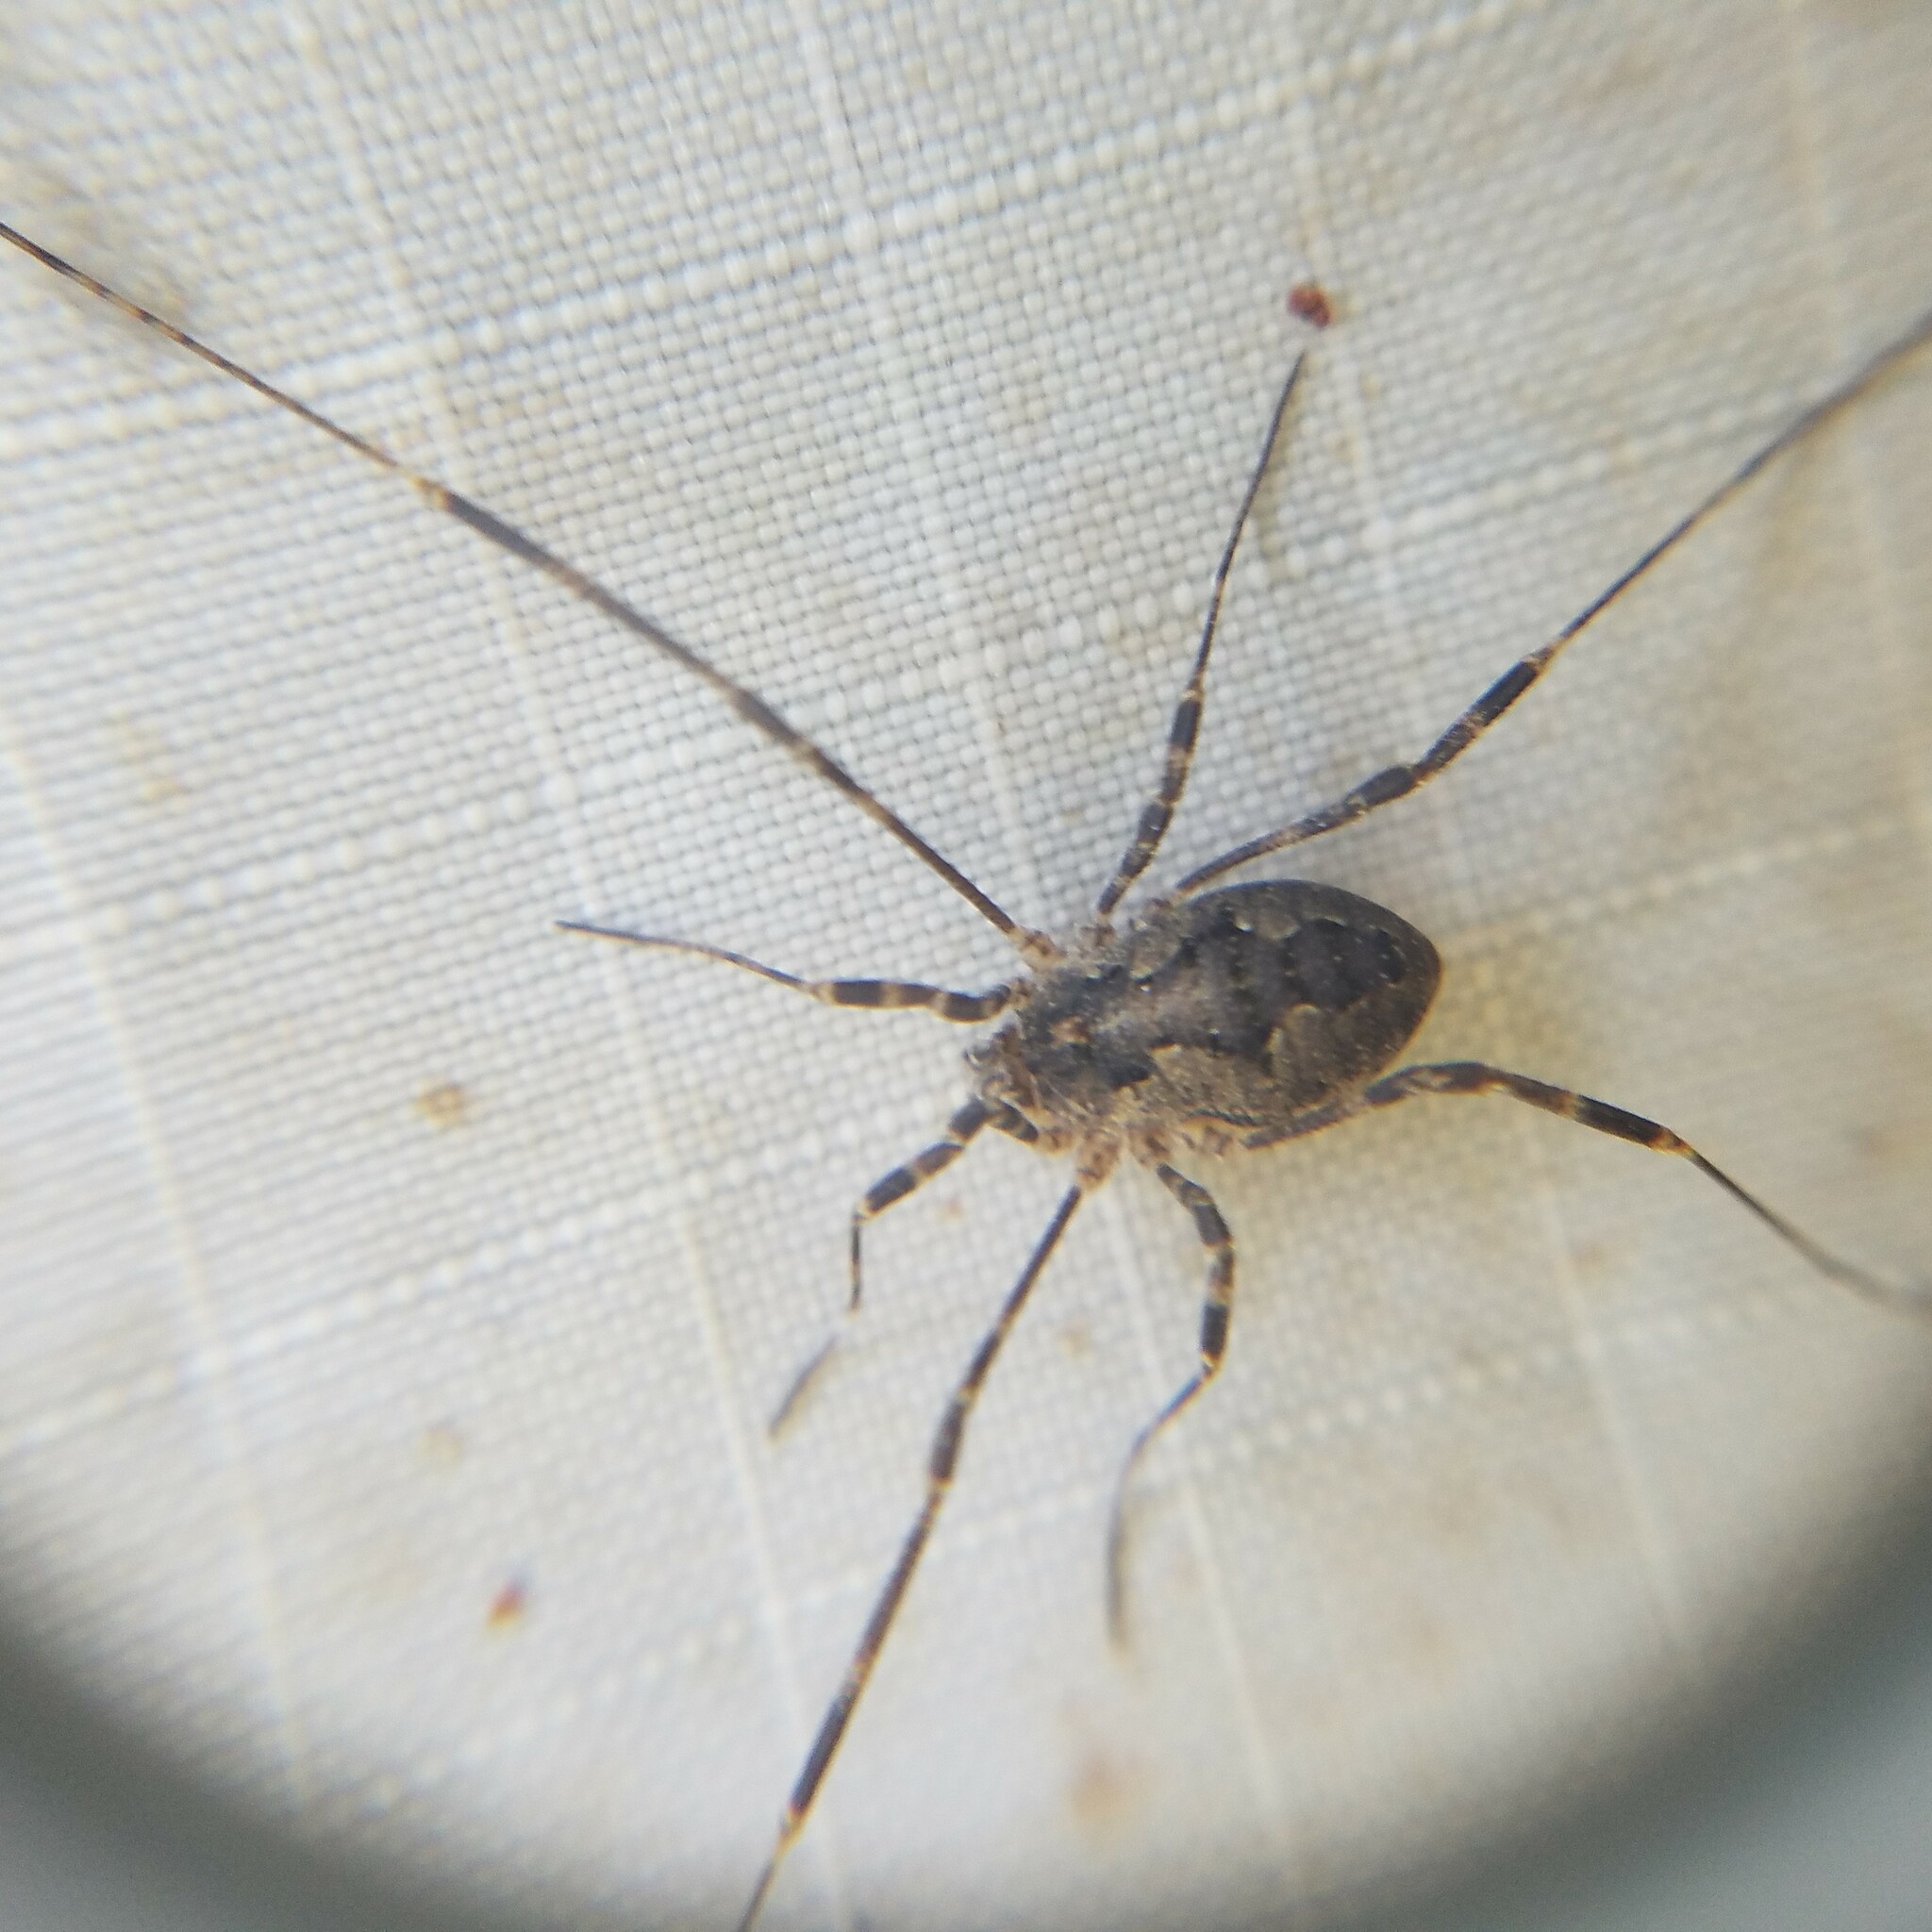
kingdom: Animalia
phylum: Arthropoda
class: Arachnida
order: Opiliones
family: Phalangiidae
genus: Odiellus
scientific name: Odiellus pictus
